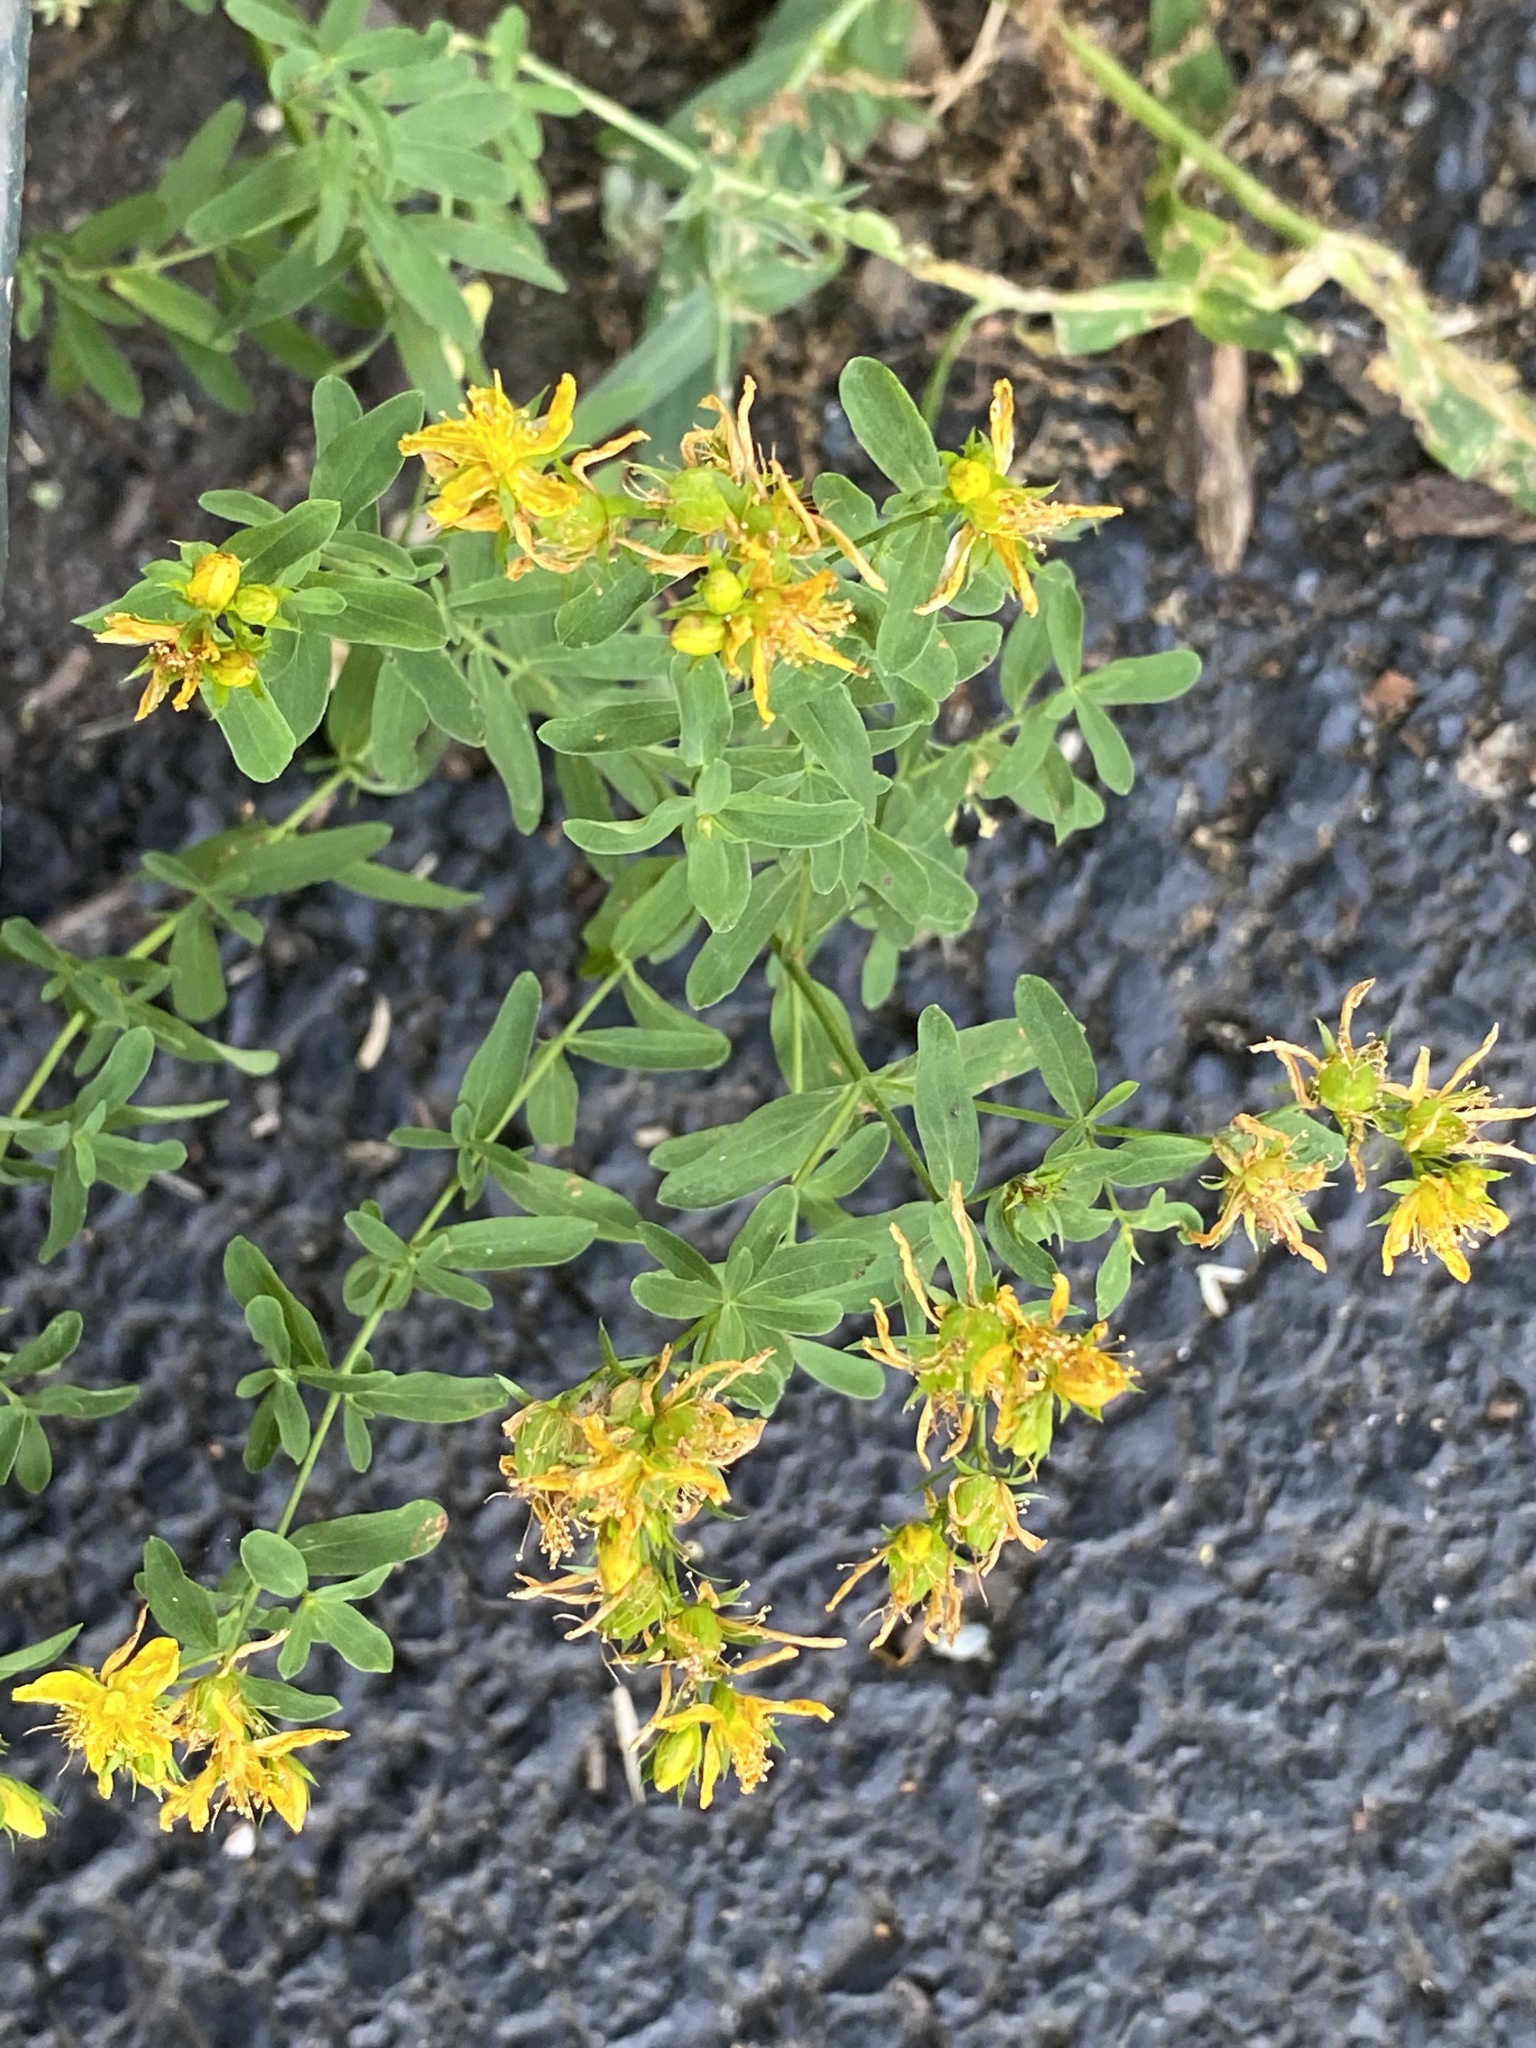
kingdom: Plantae
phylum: Tracheophyta
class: Magnoliopsida
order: Malpighiales
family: Hypericaceae
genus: Hypericum
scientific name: Hypericum perforatum
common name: Common st. johnswort
